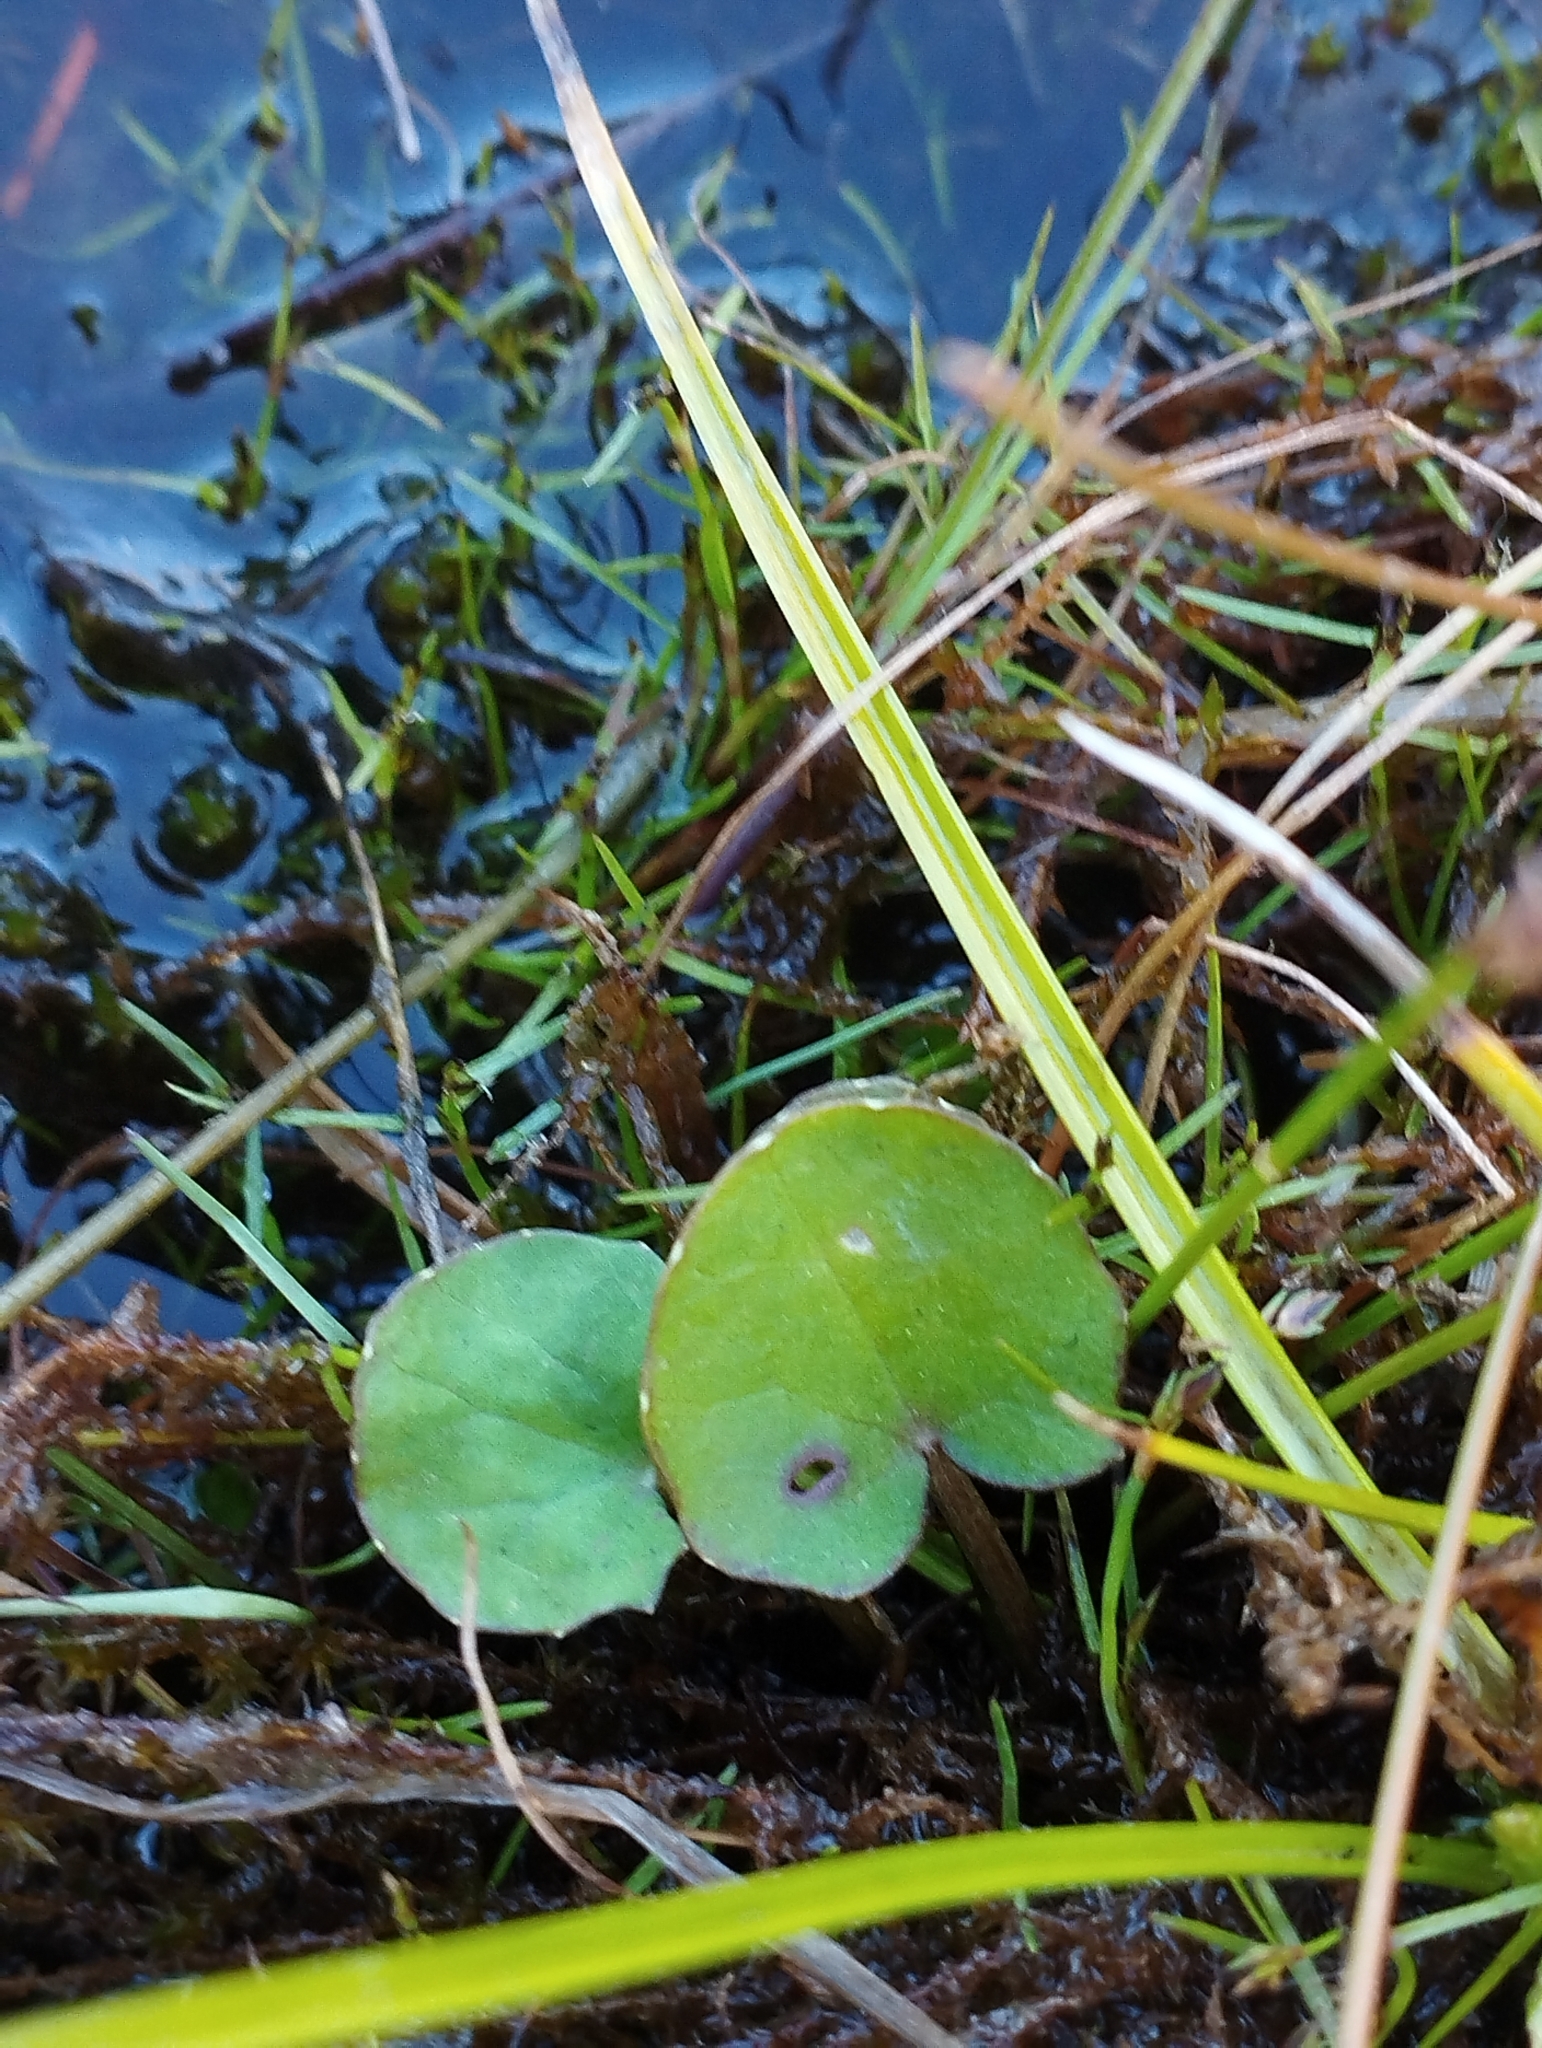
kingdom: Plantae
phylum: Tracheophyta
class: Magnoliopsida
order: Apiales
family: Apiaceae
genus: Centella
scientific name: Centella uniflora
